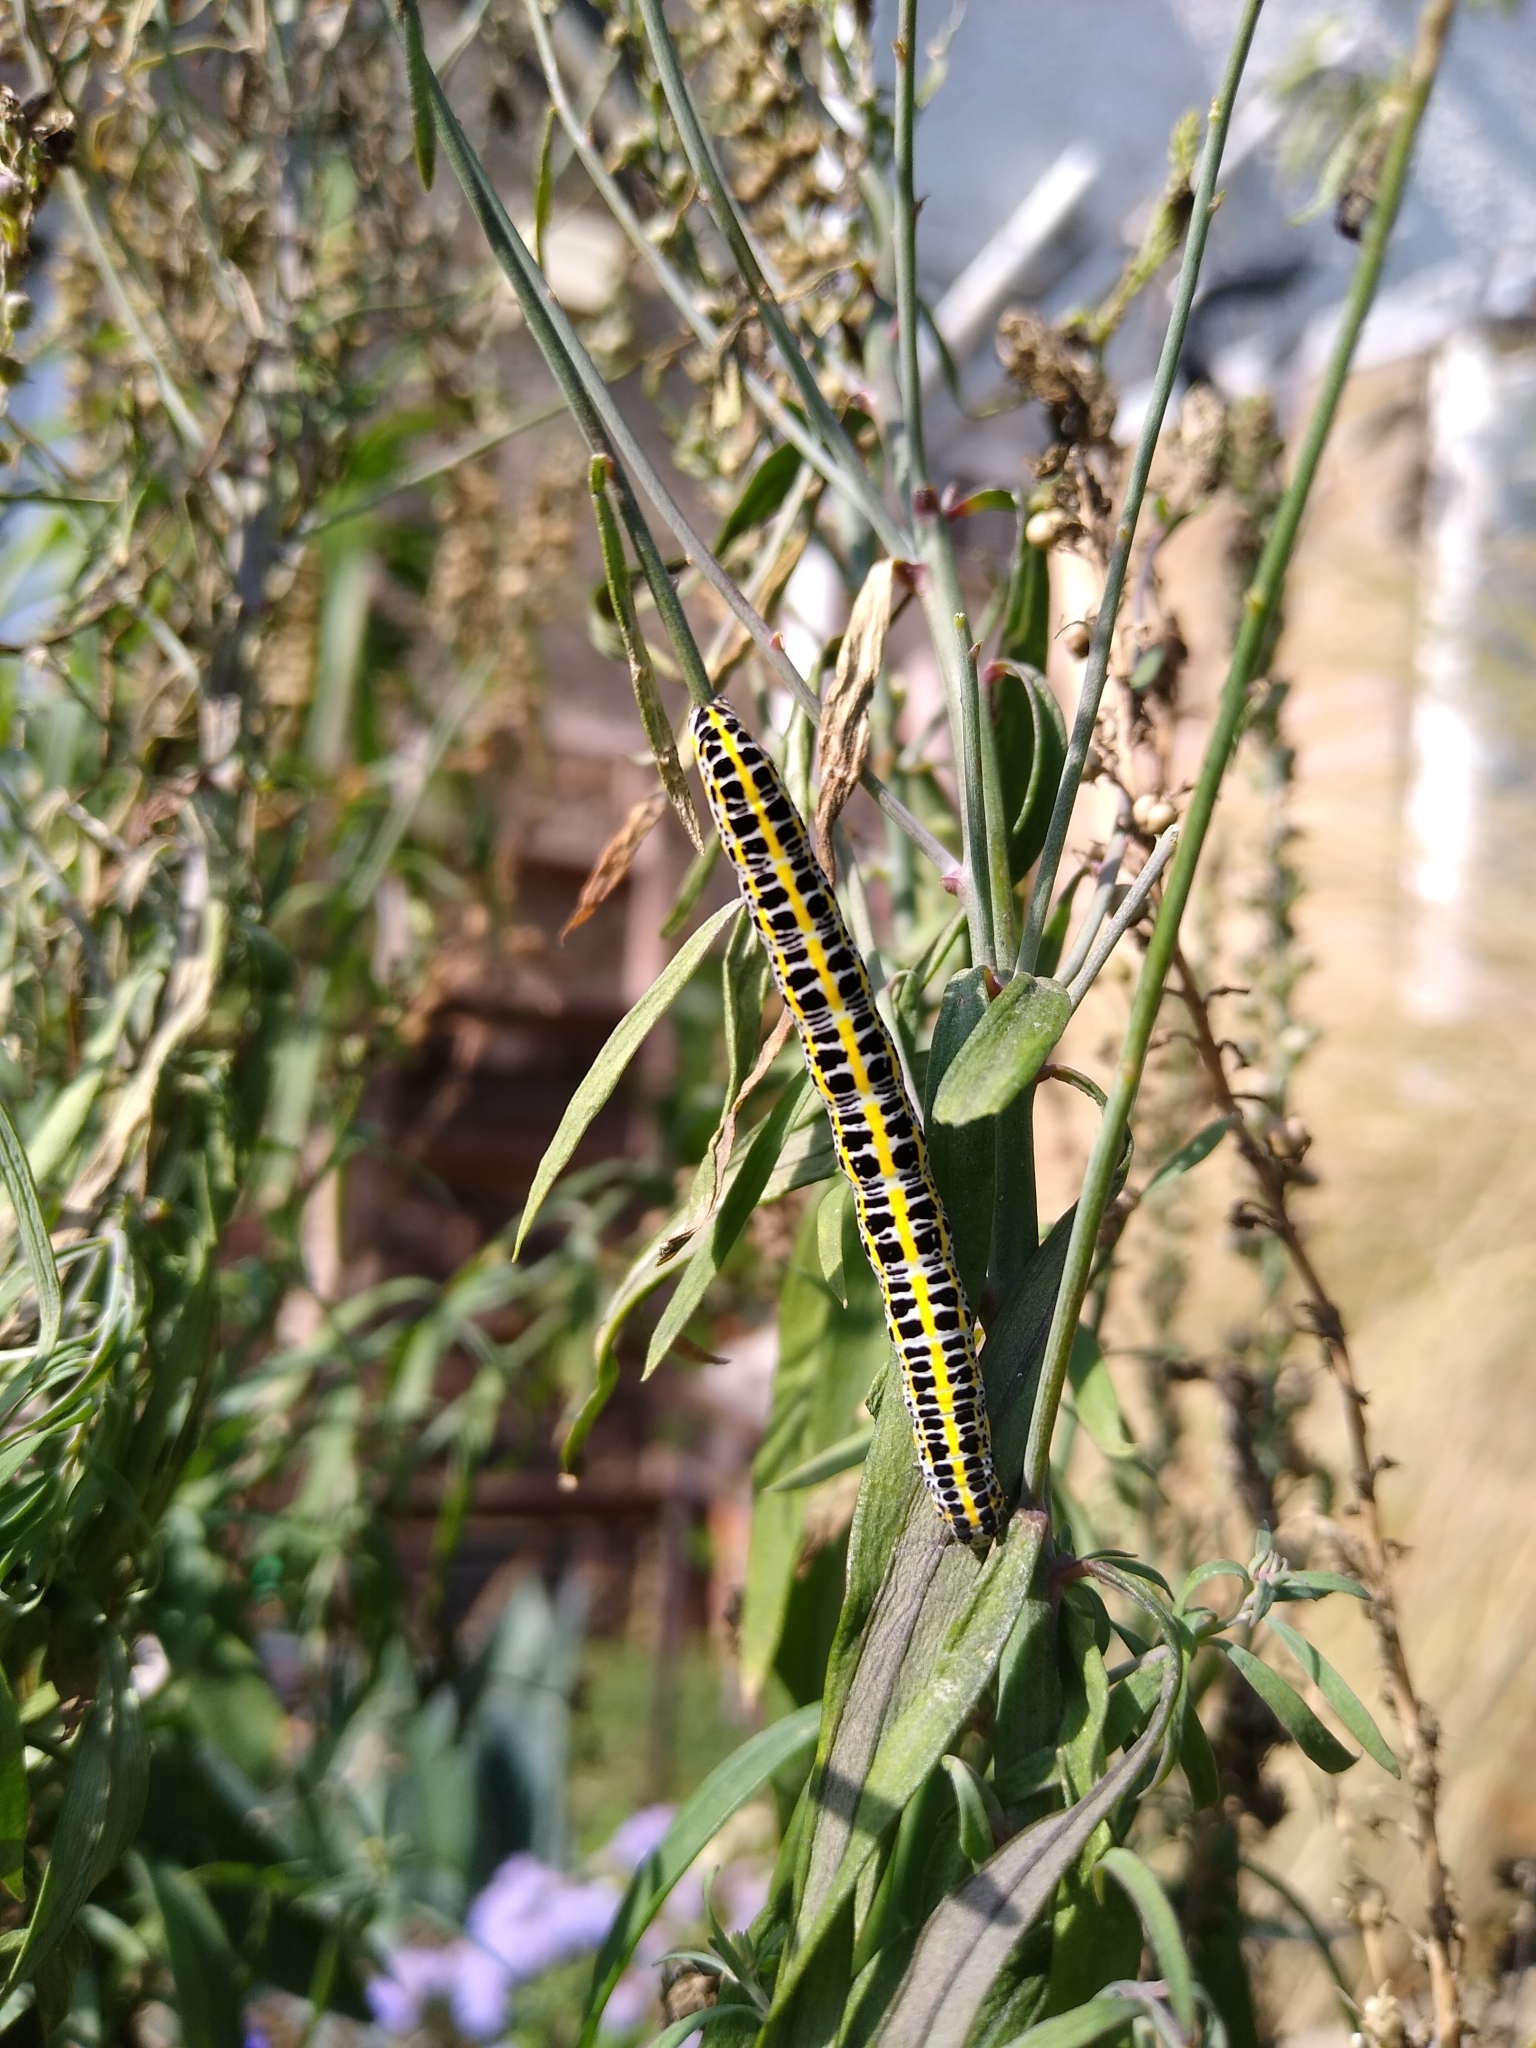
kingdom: Animalia
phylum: Arthropoda
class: Insecta
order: Lepidoptera
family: Noctuidae
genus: Calophasia
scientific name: Calophasia lunula
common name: Toadflax brocade
